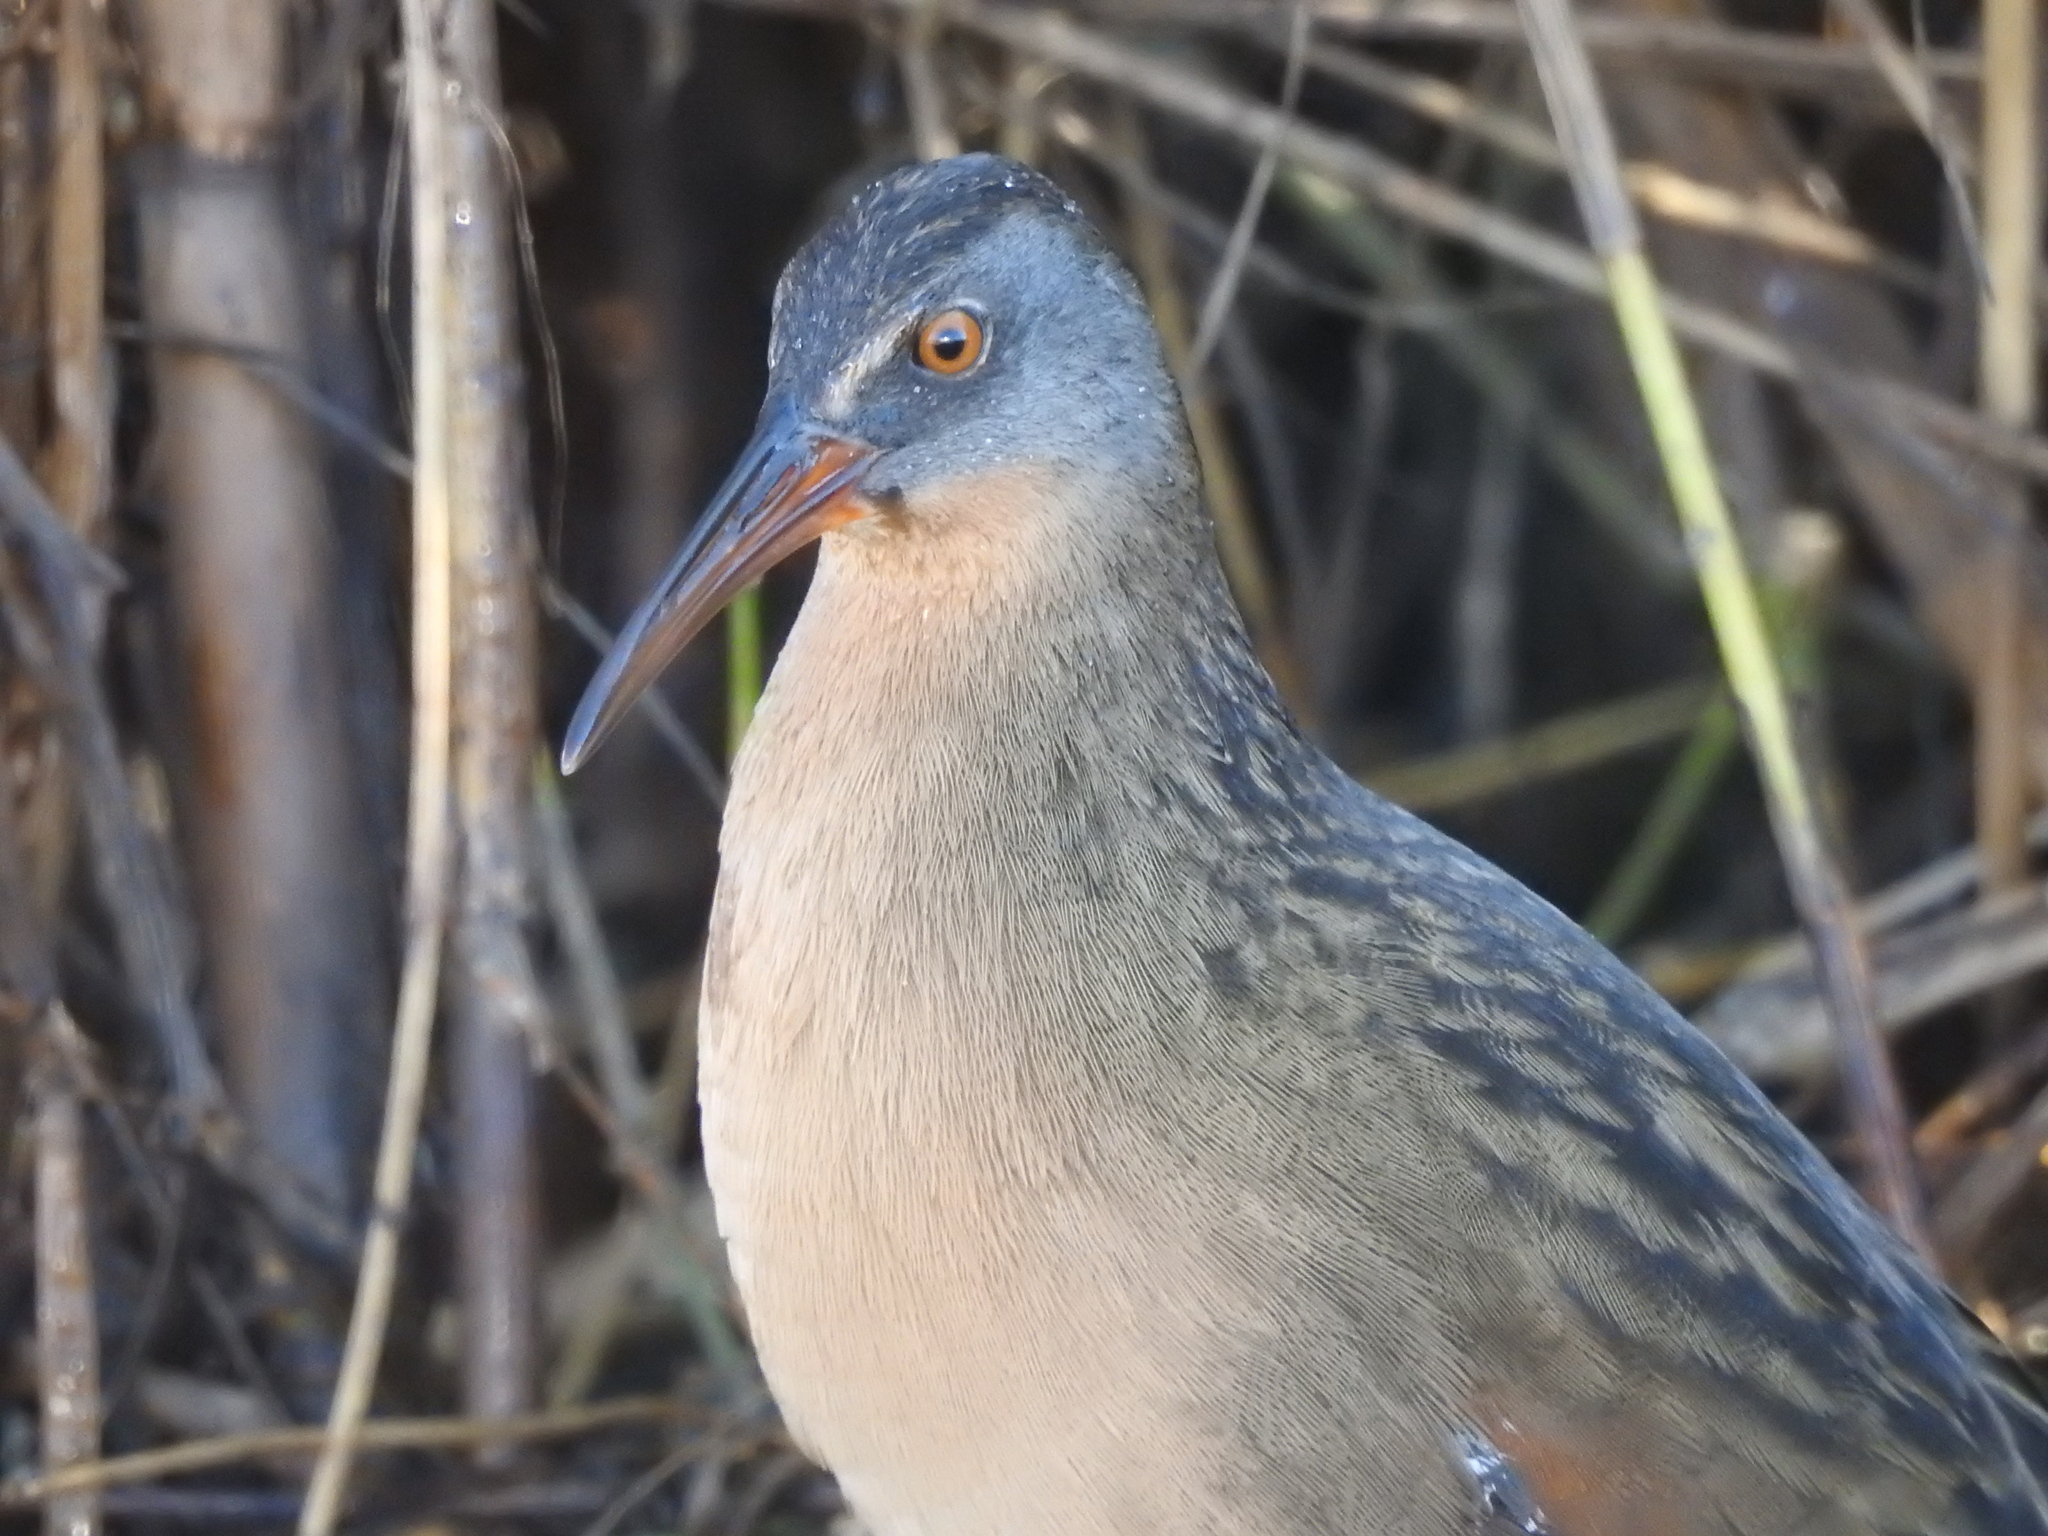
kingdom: Animalia
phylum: Chordata
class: Aves
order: Gruiformes
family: Rallidae
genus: Rallus
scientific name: Rallus limicola
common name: Virginia rail
